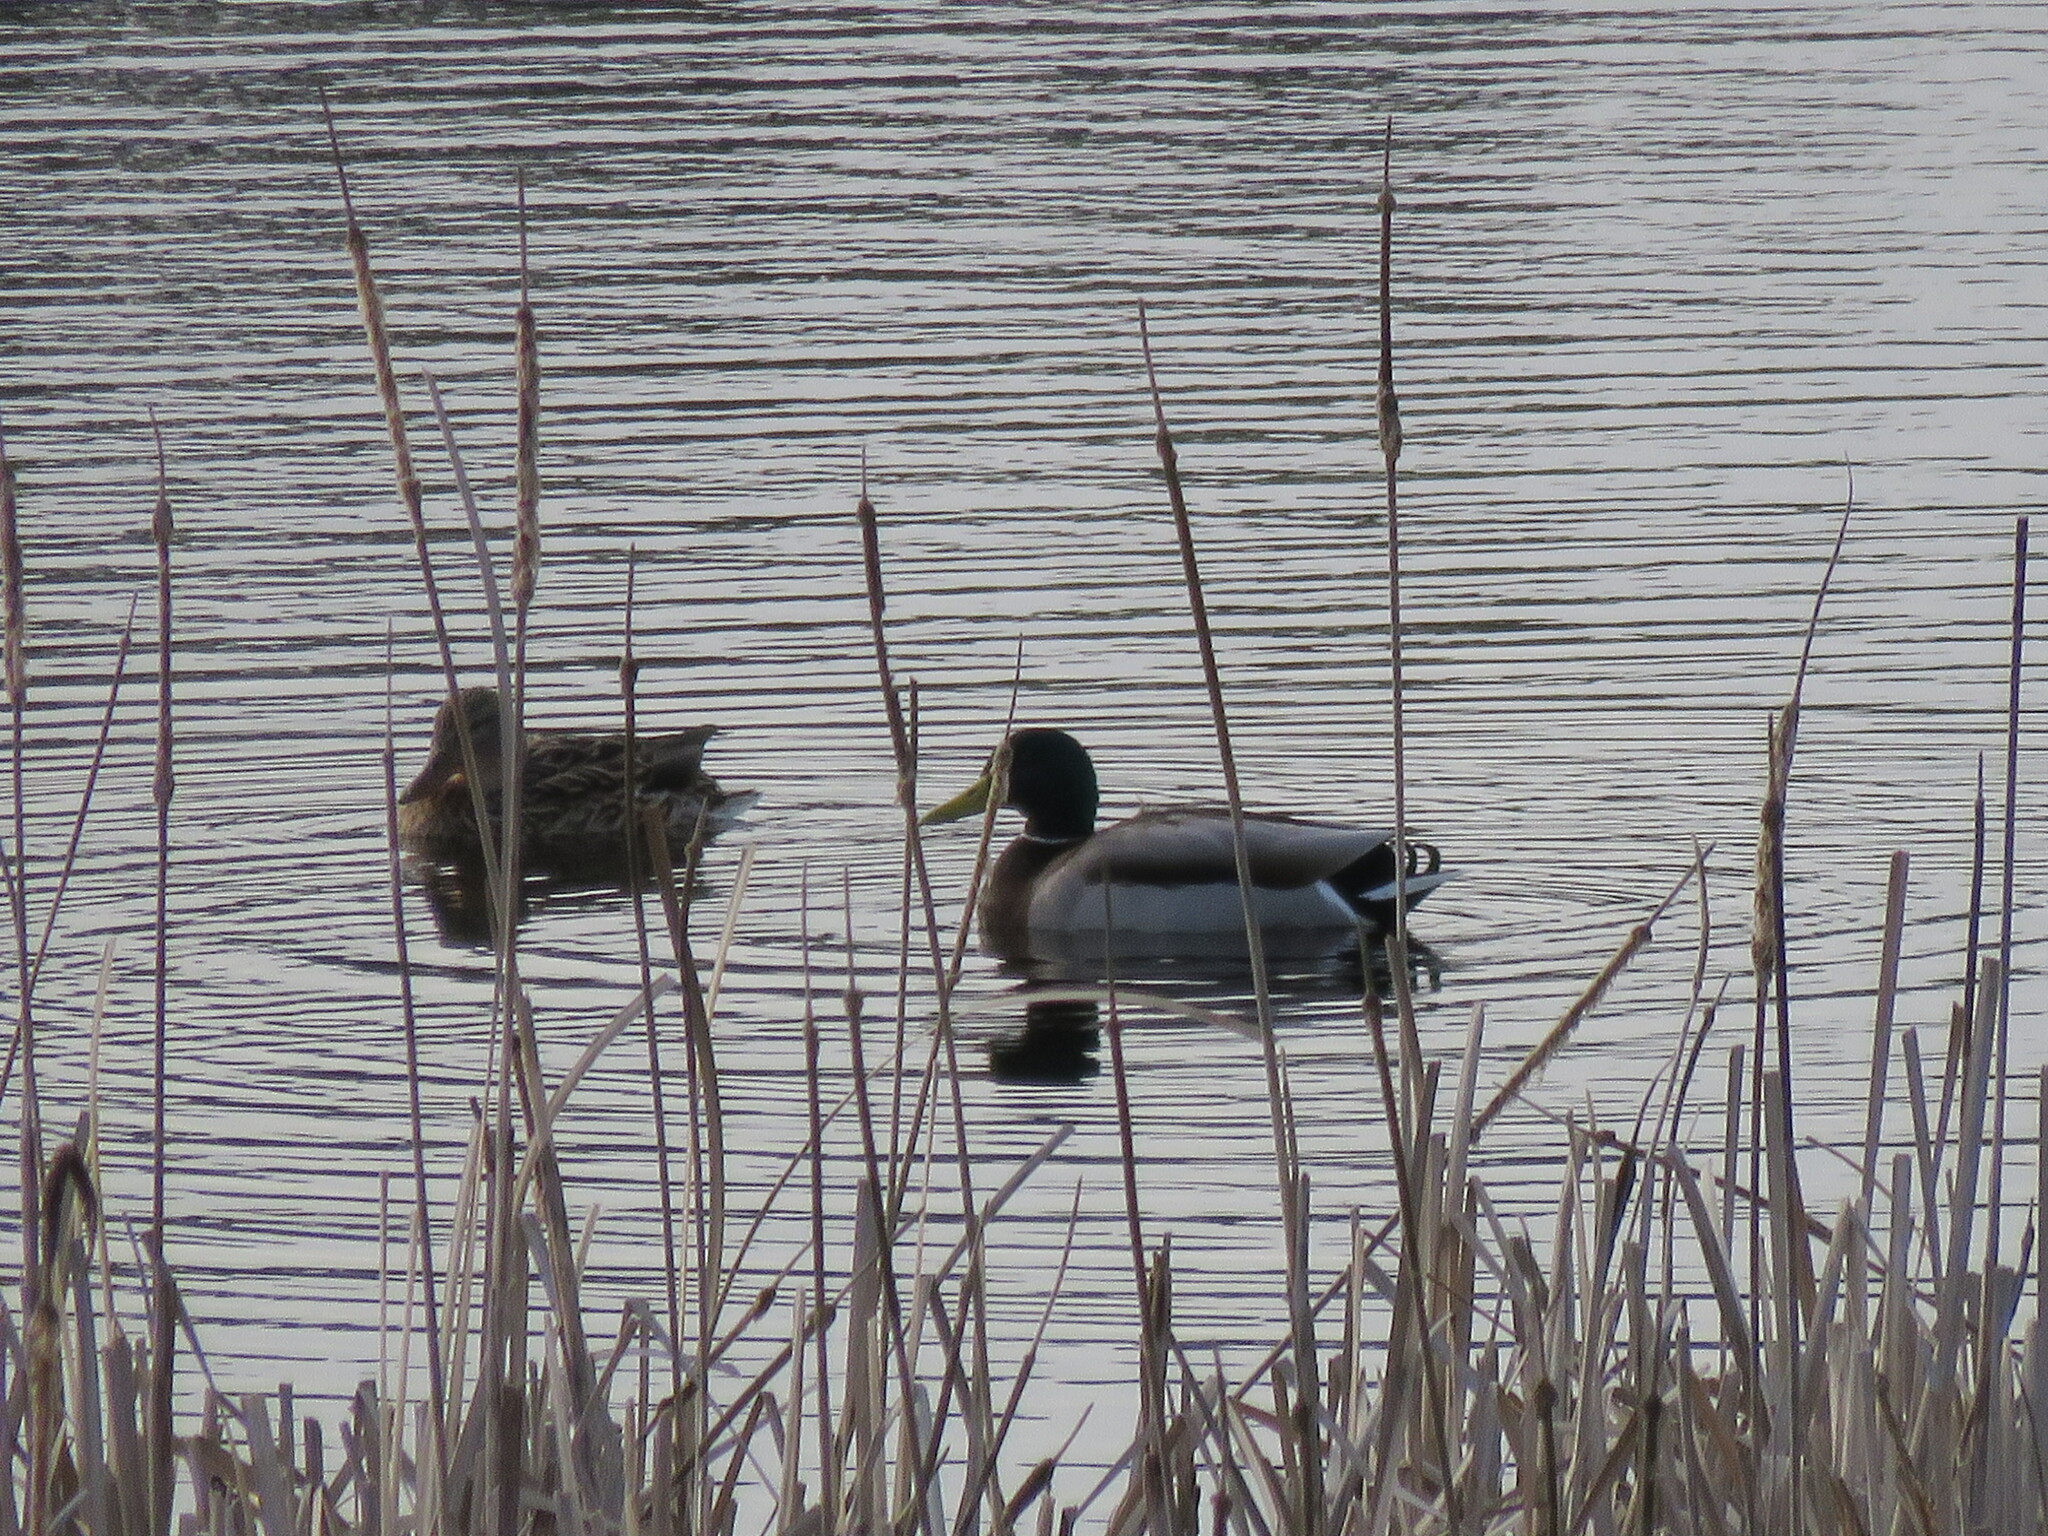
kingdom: Animalia
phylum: Chordata
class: Aves
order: Anseriformes
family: Anatidae
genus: Anas
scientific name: Anas platyrhynchos
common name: Mallard
